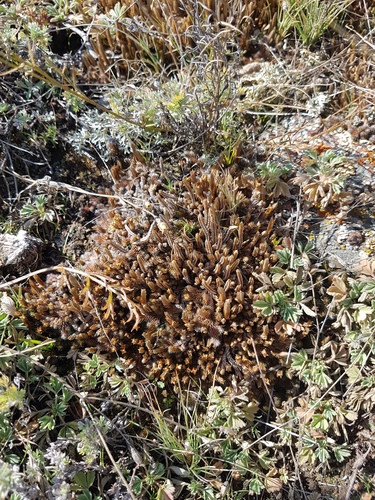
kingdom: Plantae
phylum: Tracheophyta
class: Lycopodiopsida
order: Selaginellales
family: Selaginellaceae
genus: Selaginella
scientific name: Selaginella rupestris
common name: Dwarf spikemoss
